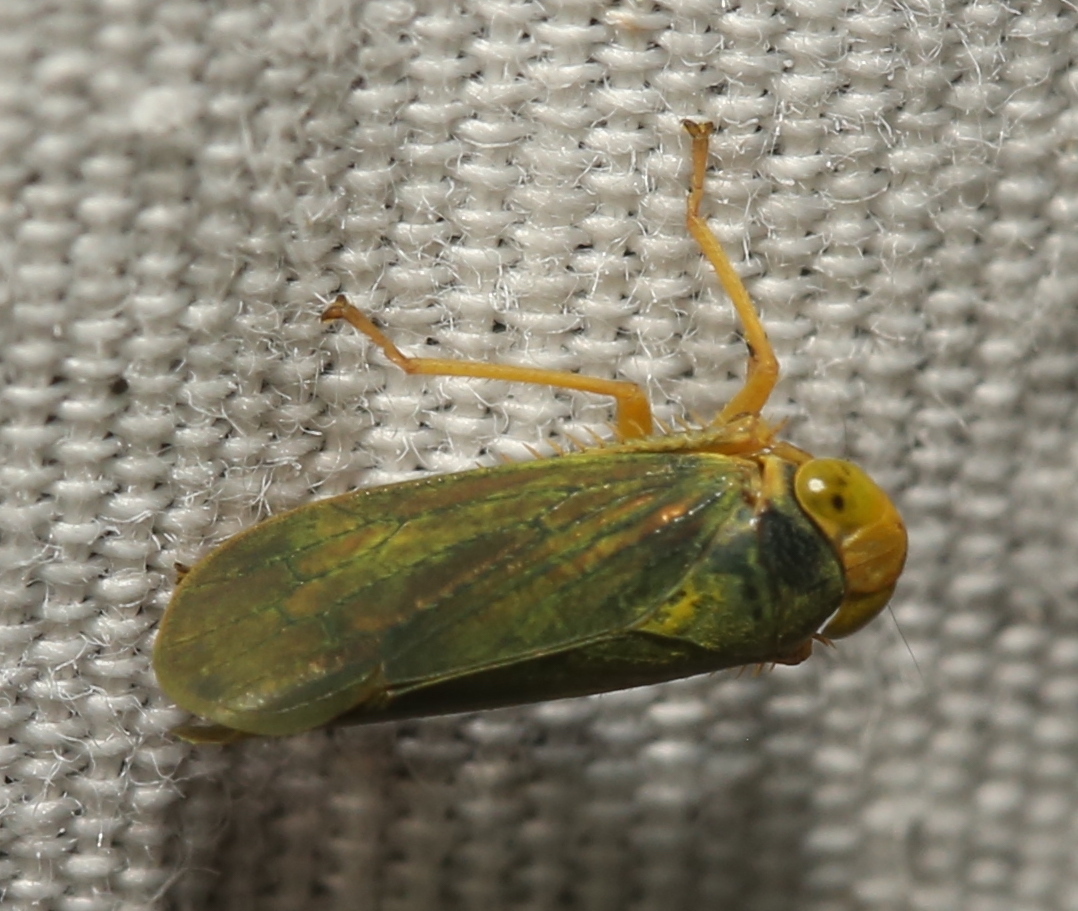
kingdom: Animalia
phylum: Arthropoda
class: Insecta
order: Hemiptera
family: Cicadellidae
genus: Jikradia
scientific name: Jikradia olitoria
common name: Coppery leafhopper
